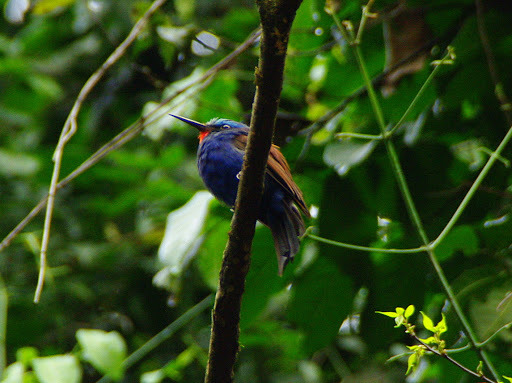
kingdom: Animalia
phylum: Chordata
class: Aves
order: Coraciiformes
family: Meropidae
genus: Merops
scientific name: Merops muelleri
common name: Blue-headed bee-eater
